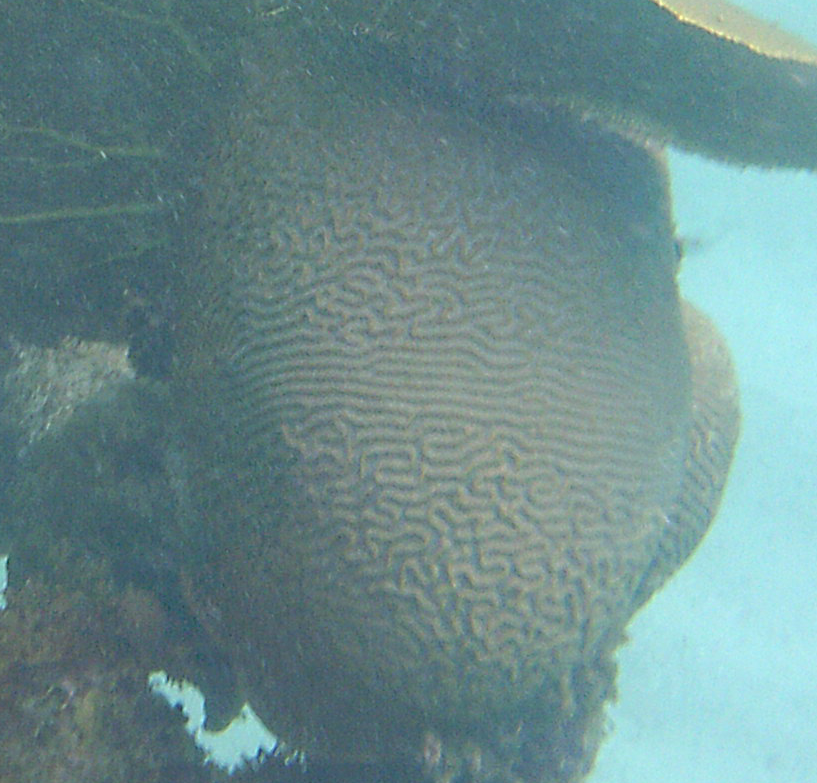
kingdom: Animalia
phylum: Cnidaria
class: Anthozoa
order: Scleractinia
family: Faviidae
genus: Pseudodiploria
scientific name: Pseudodiploria strigosa
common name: Symmetrical brain coral
